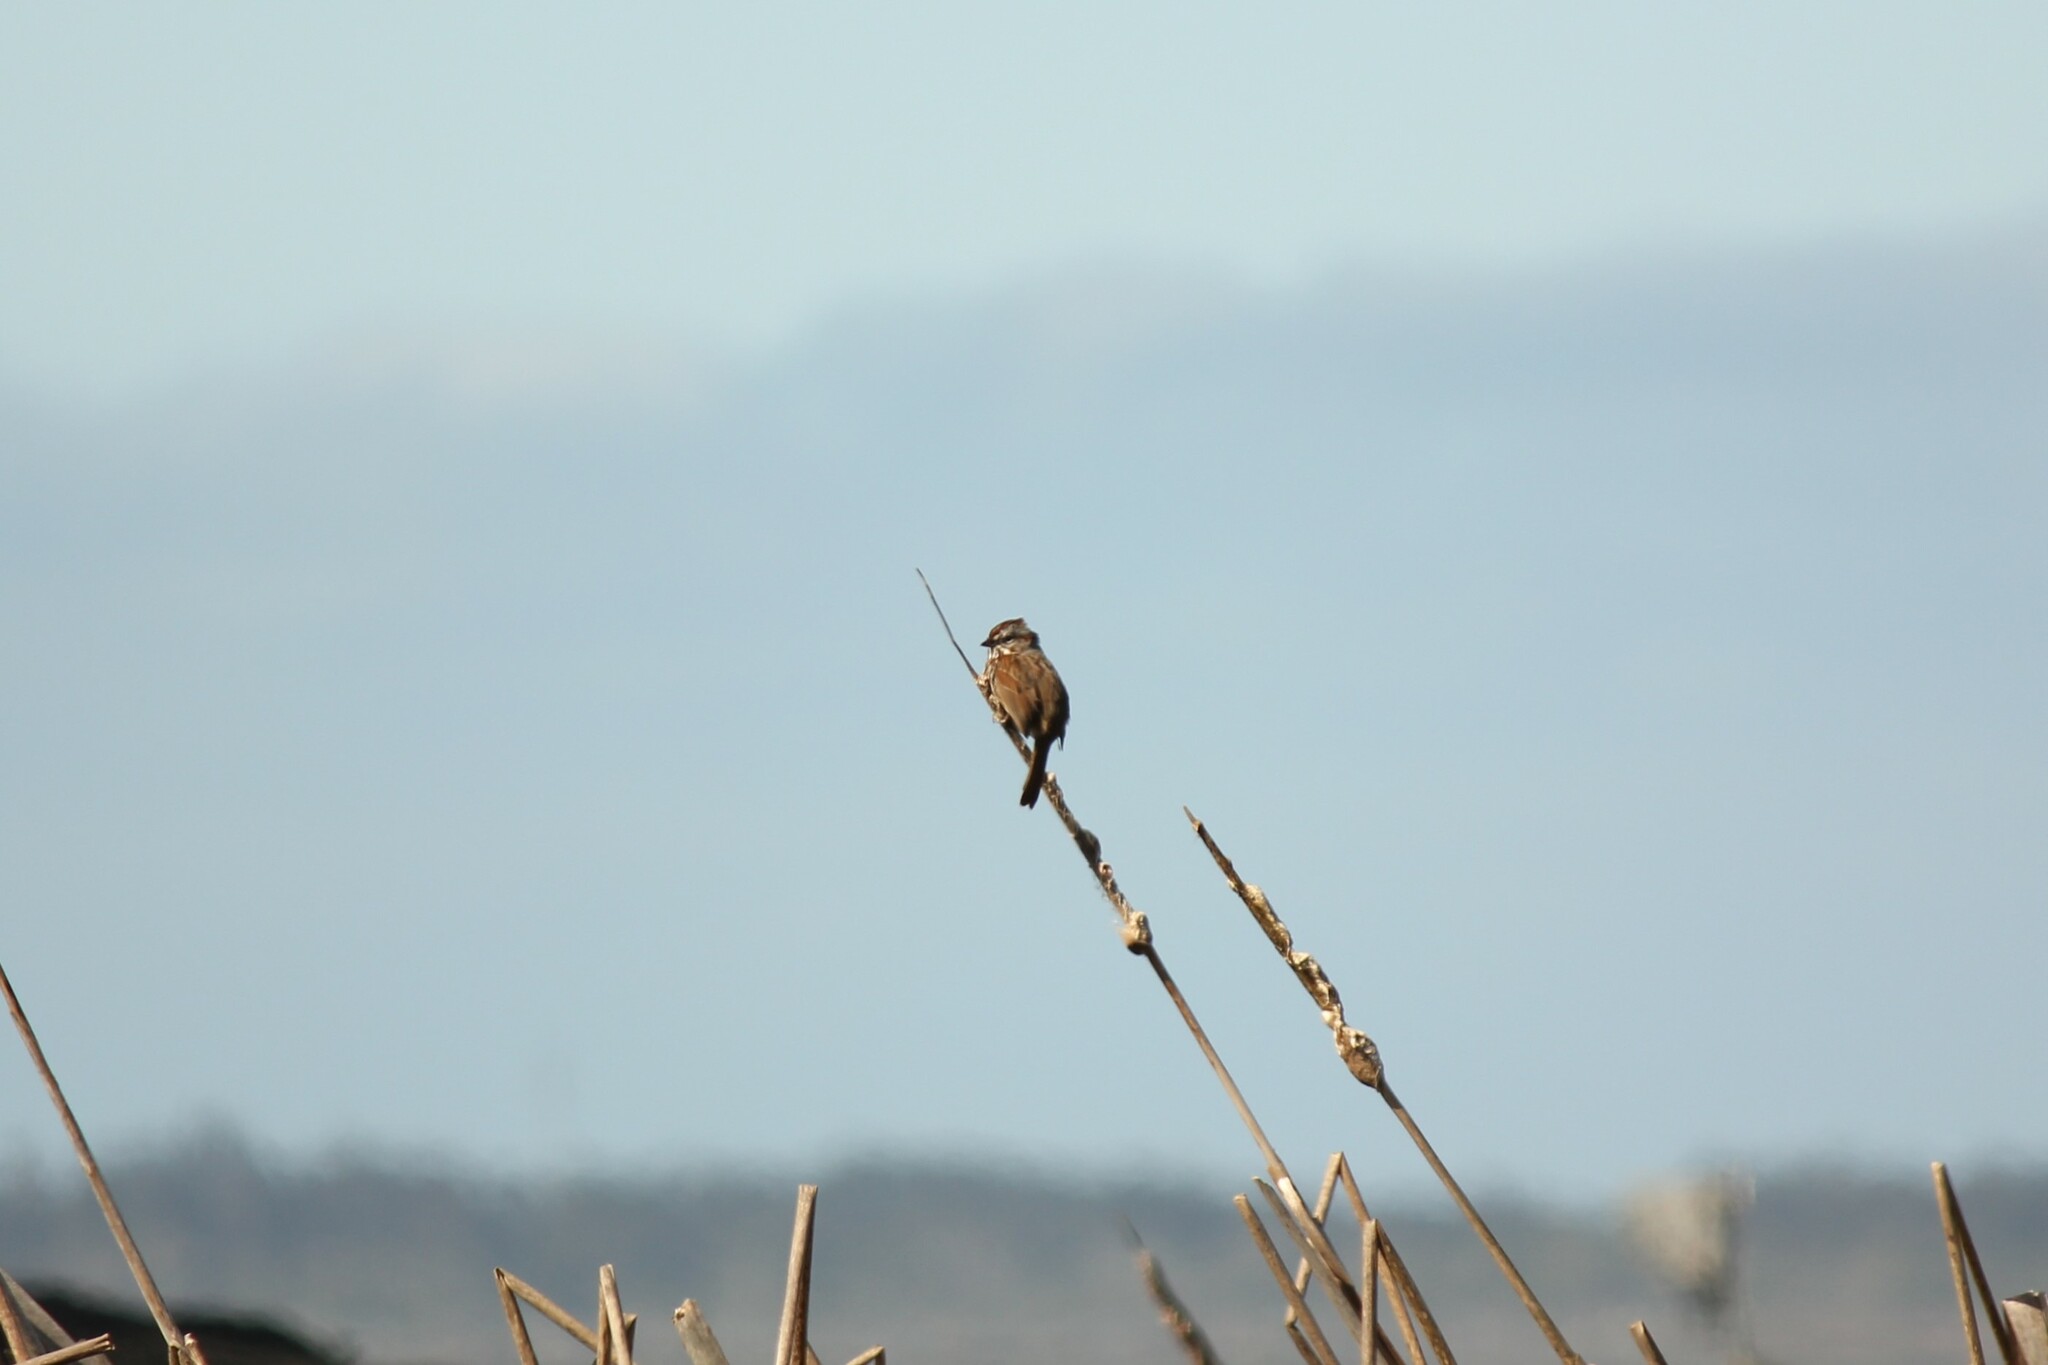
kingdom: Animalia
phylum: Chordata
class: Aves
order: Passeriformes
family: Passerellidae
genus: Melospiza
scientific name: Melospiza melodia
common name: Song sparrow
